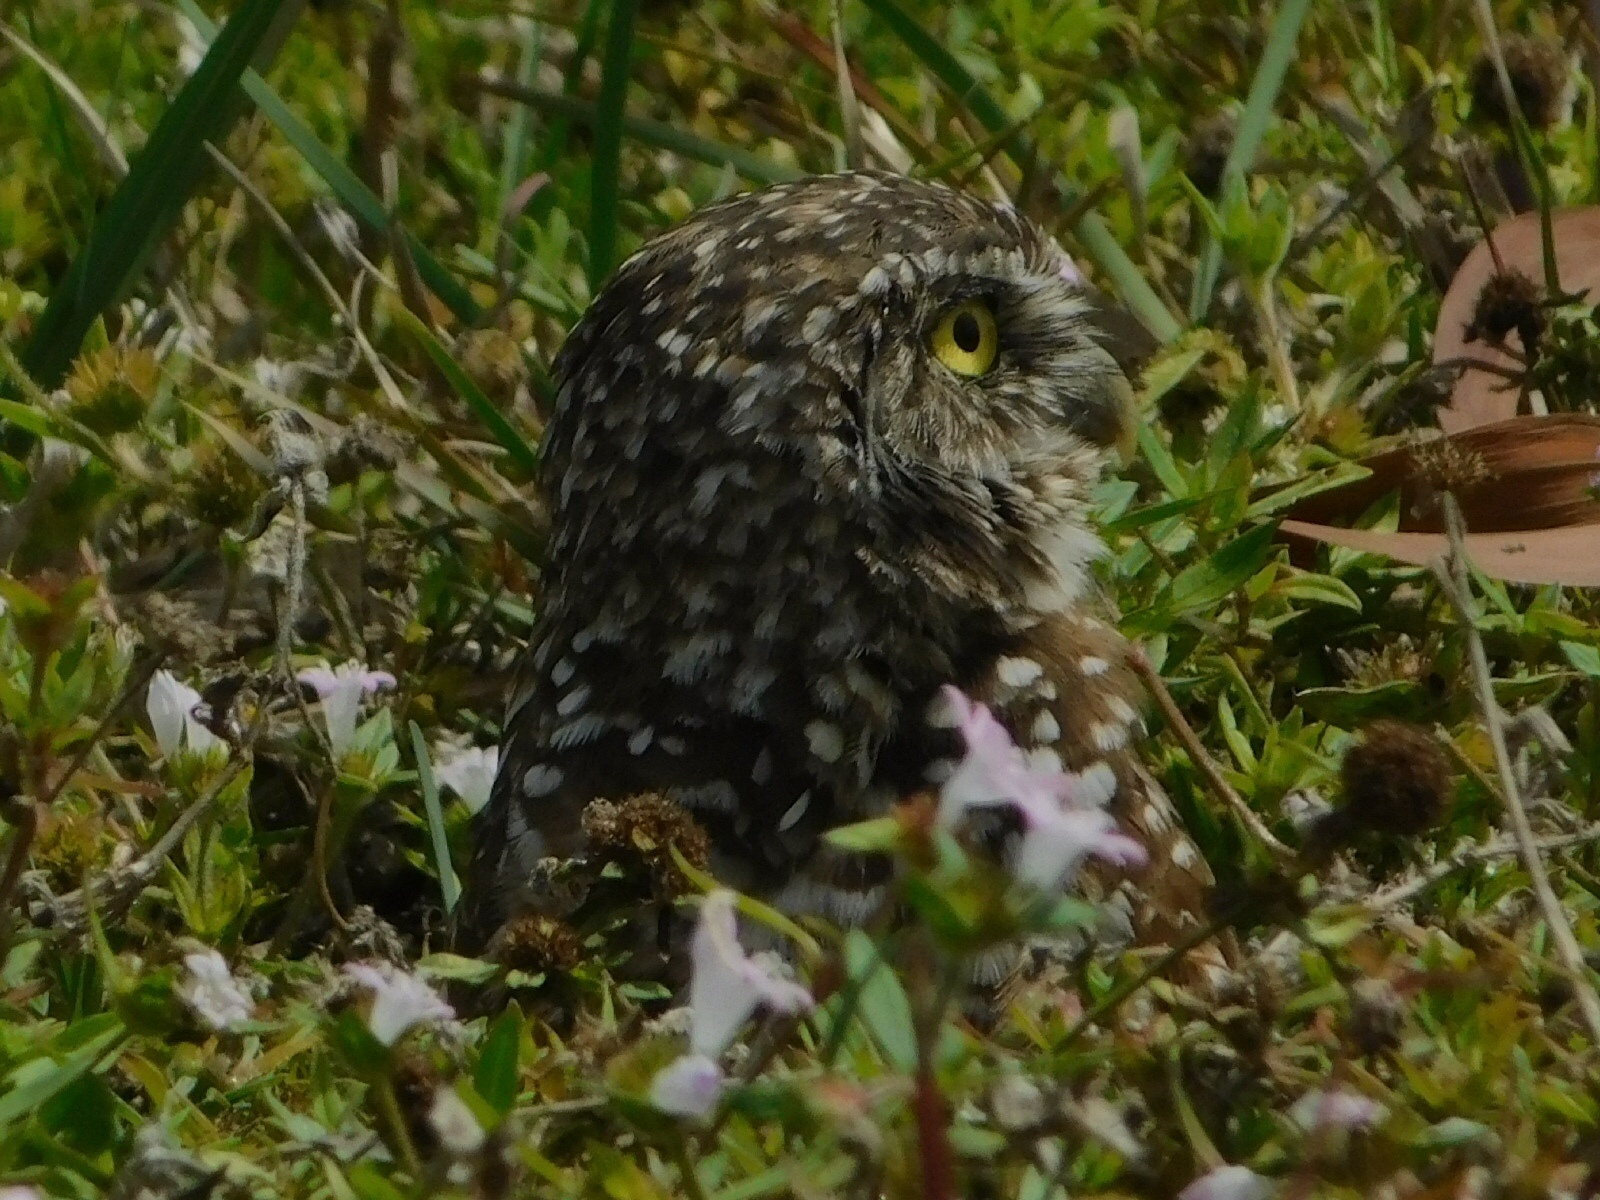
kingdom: Animalia
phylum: Chordata
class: Aves
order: Strigiformes
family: Strigidae
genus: Athene
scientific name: Athene cunicularia
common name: Burrowing owl
